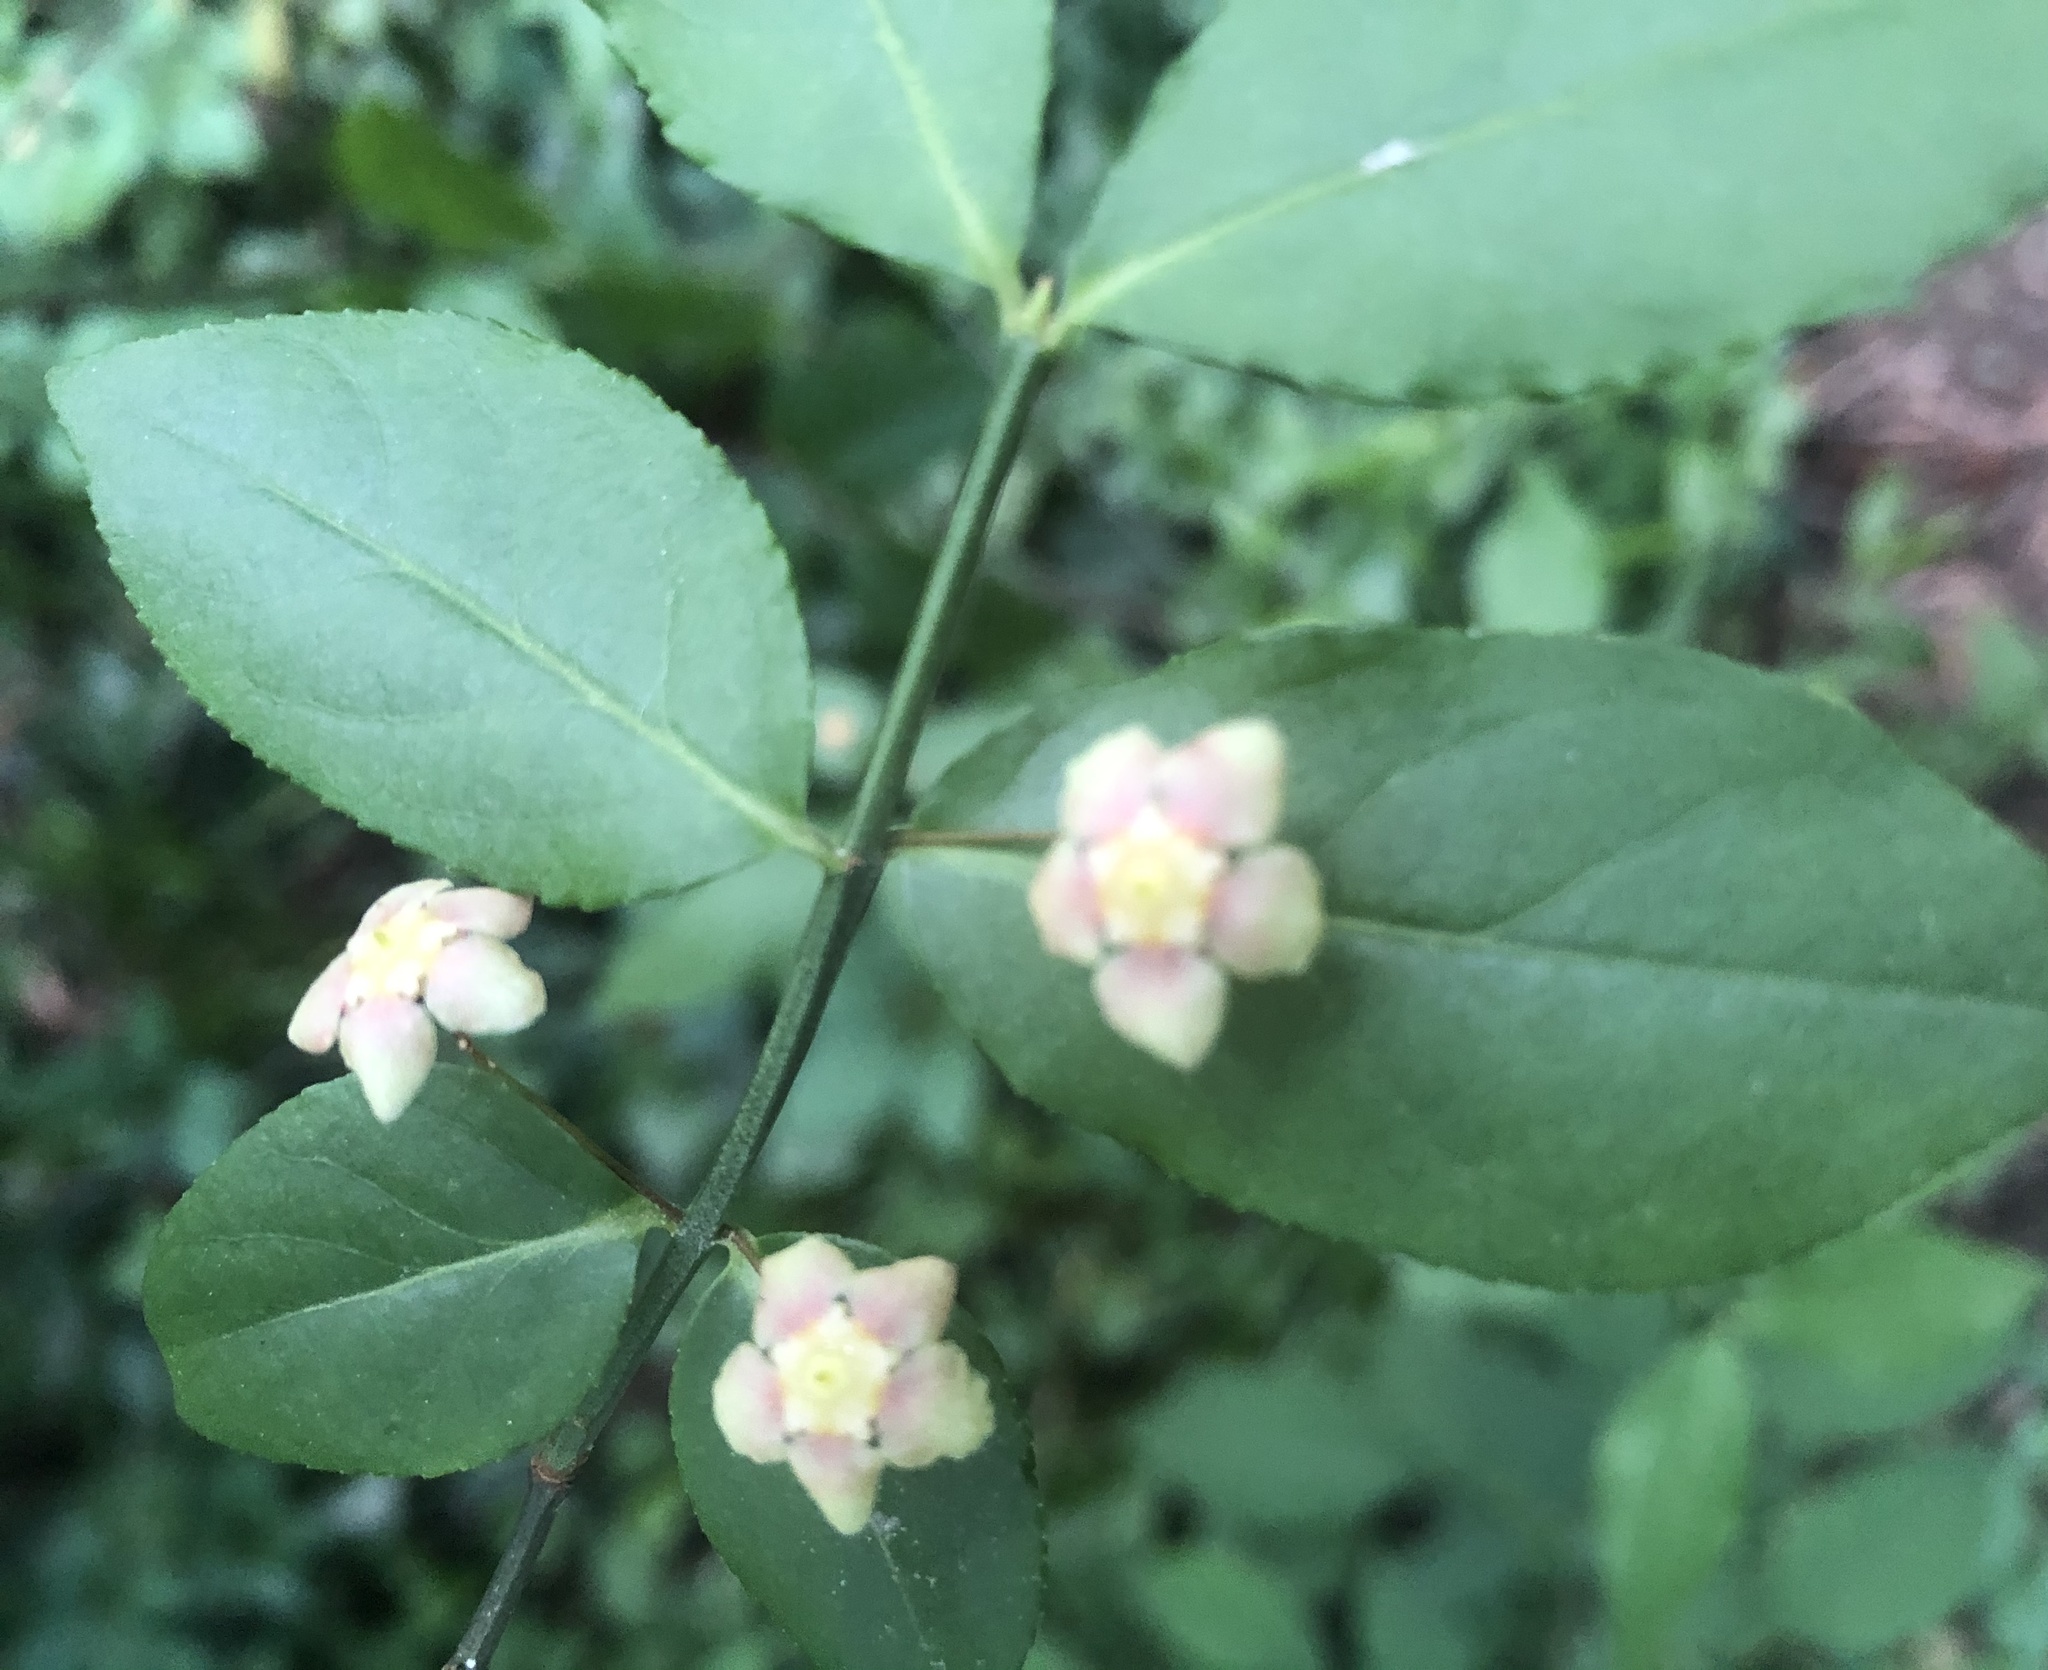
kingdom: Plantae
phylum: Tracheophyta
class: Magnoliopsida
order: Celastrales
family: Celastraceae
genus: Euonymus
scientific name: Euonymus americanus
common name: Bursting-heart
